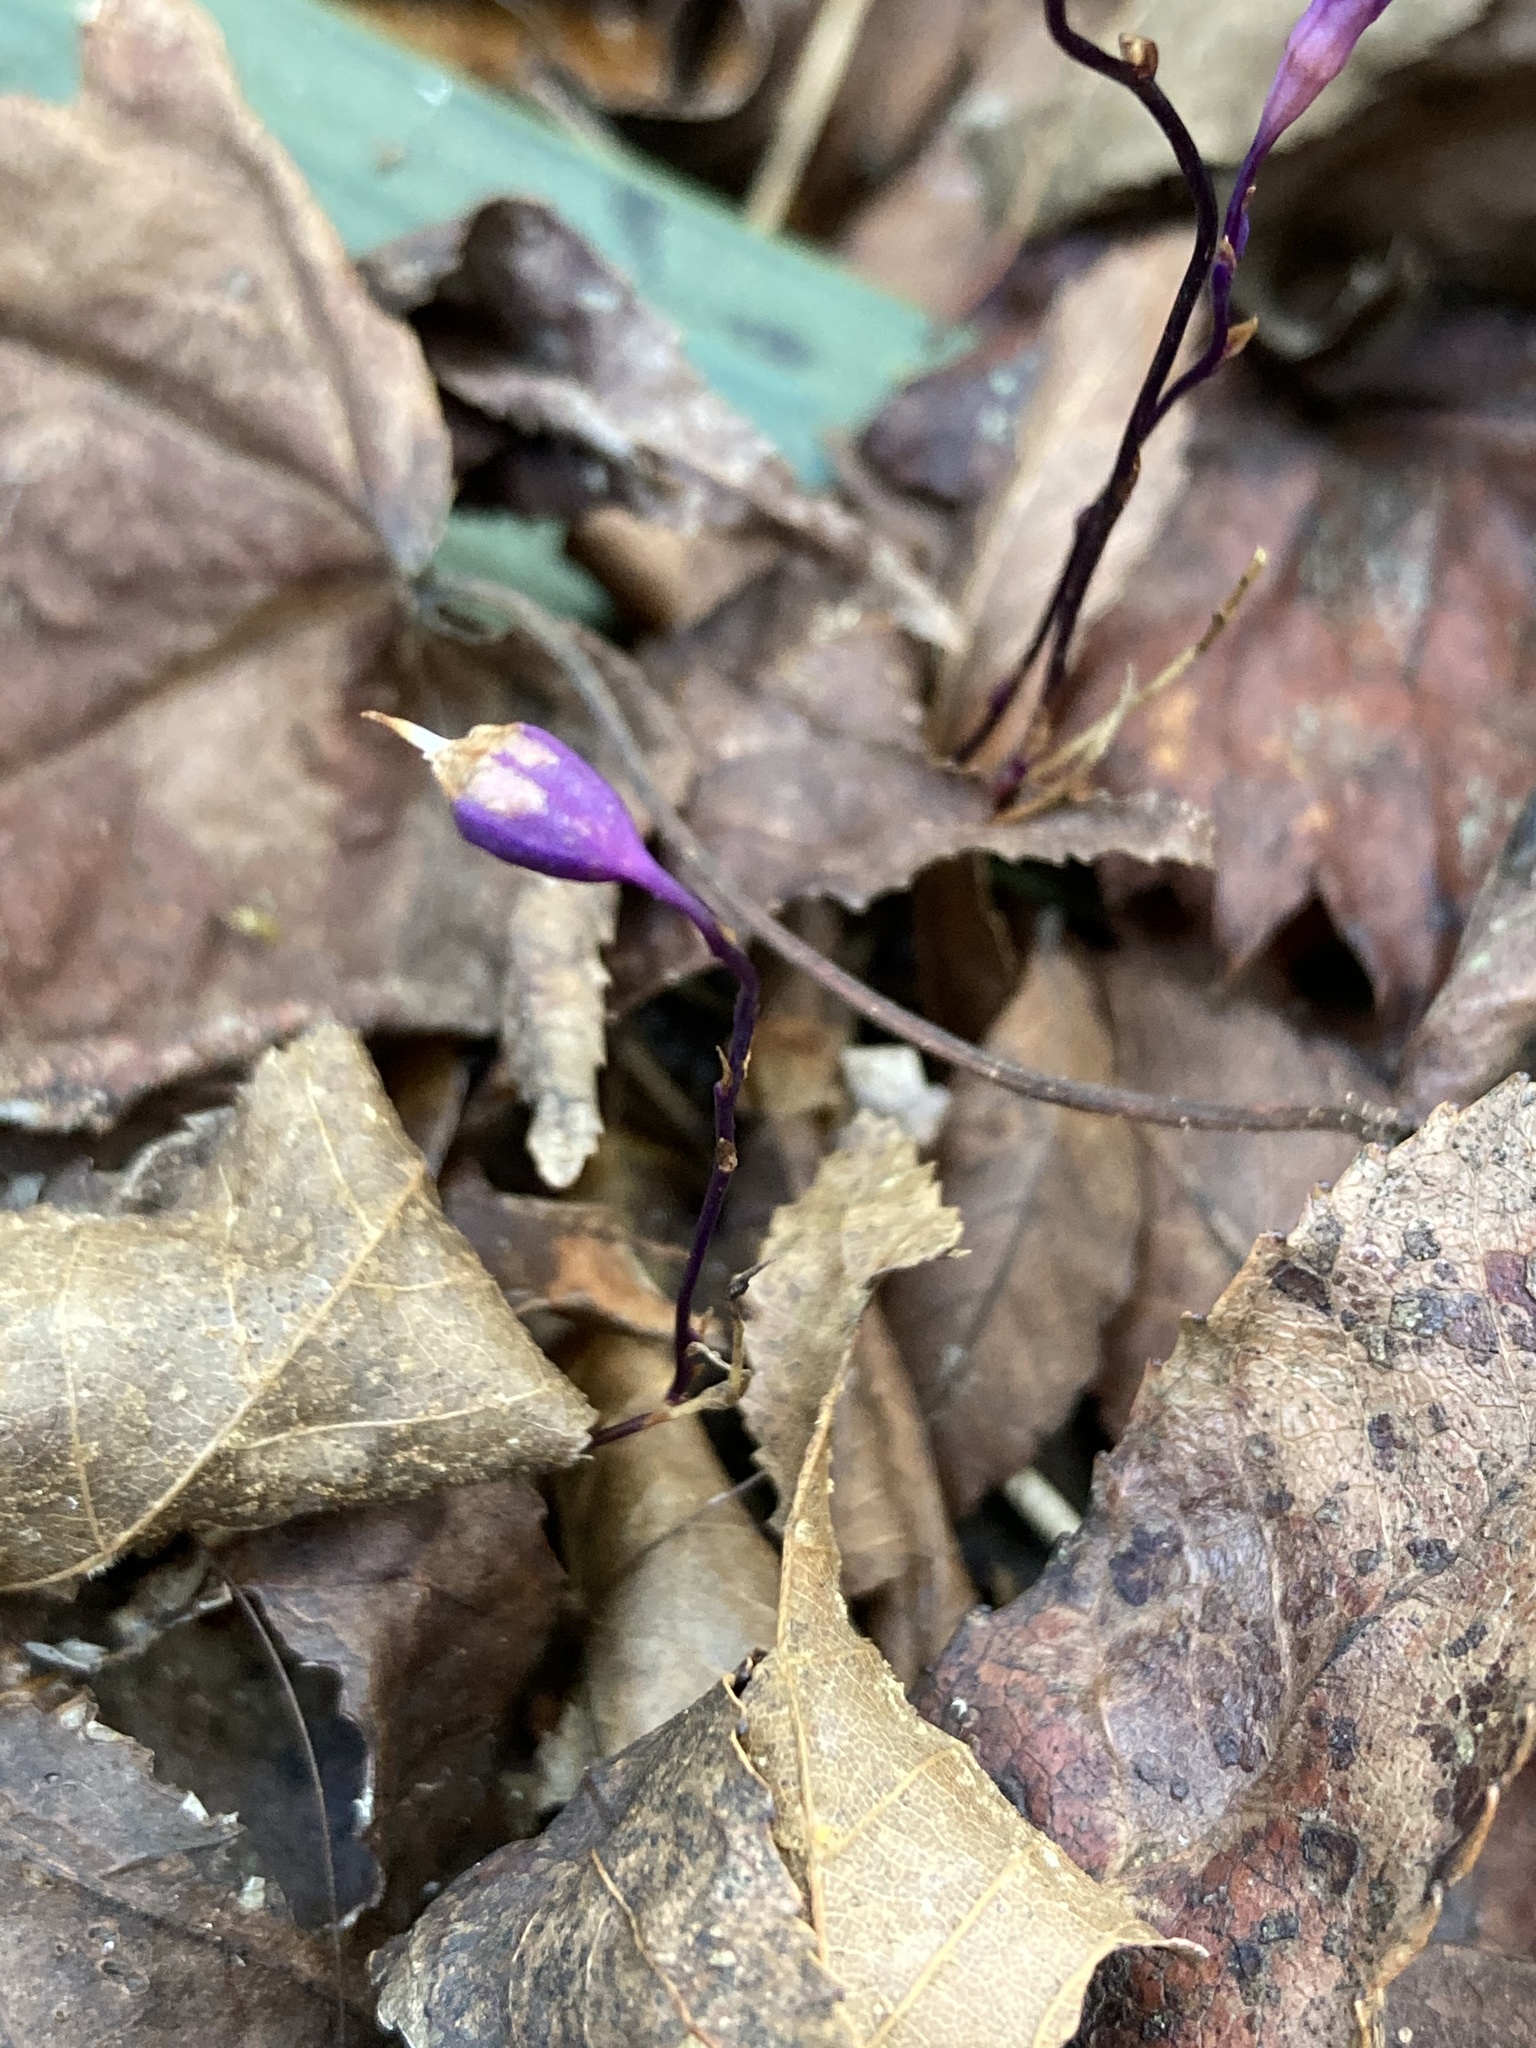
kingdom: Plantae
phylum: Tracheophyta
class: Liliopsida
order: Dioscoreales
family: Burmanniaceae
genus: Apteria
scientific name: Apteria aphylla
